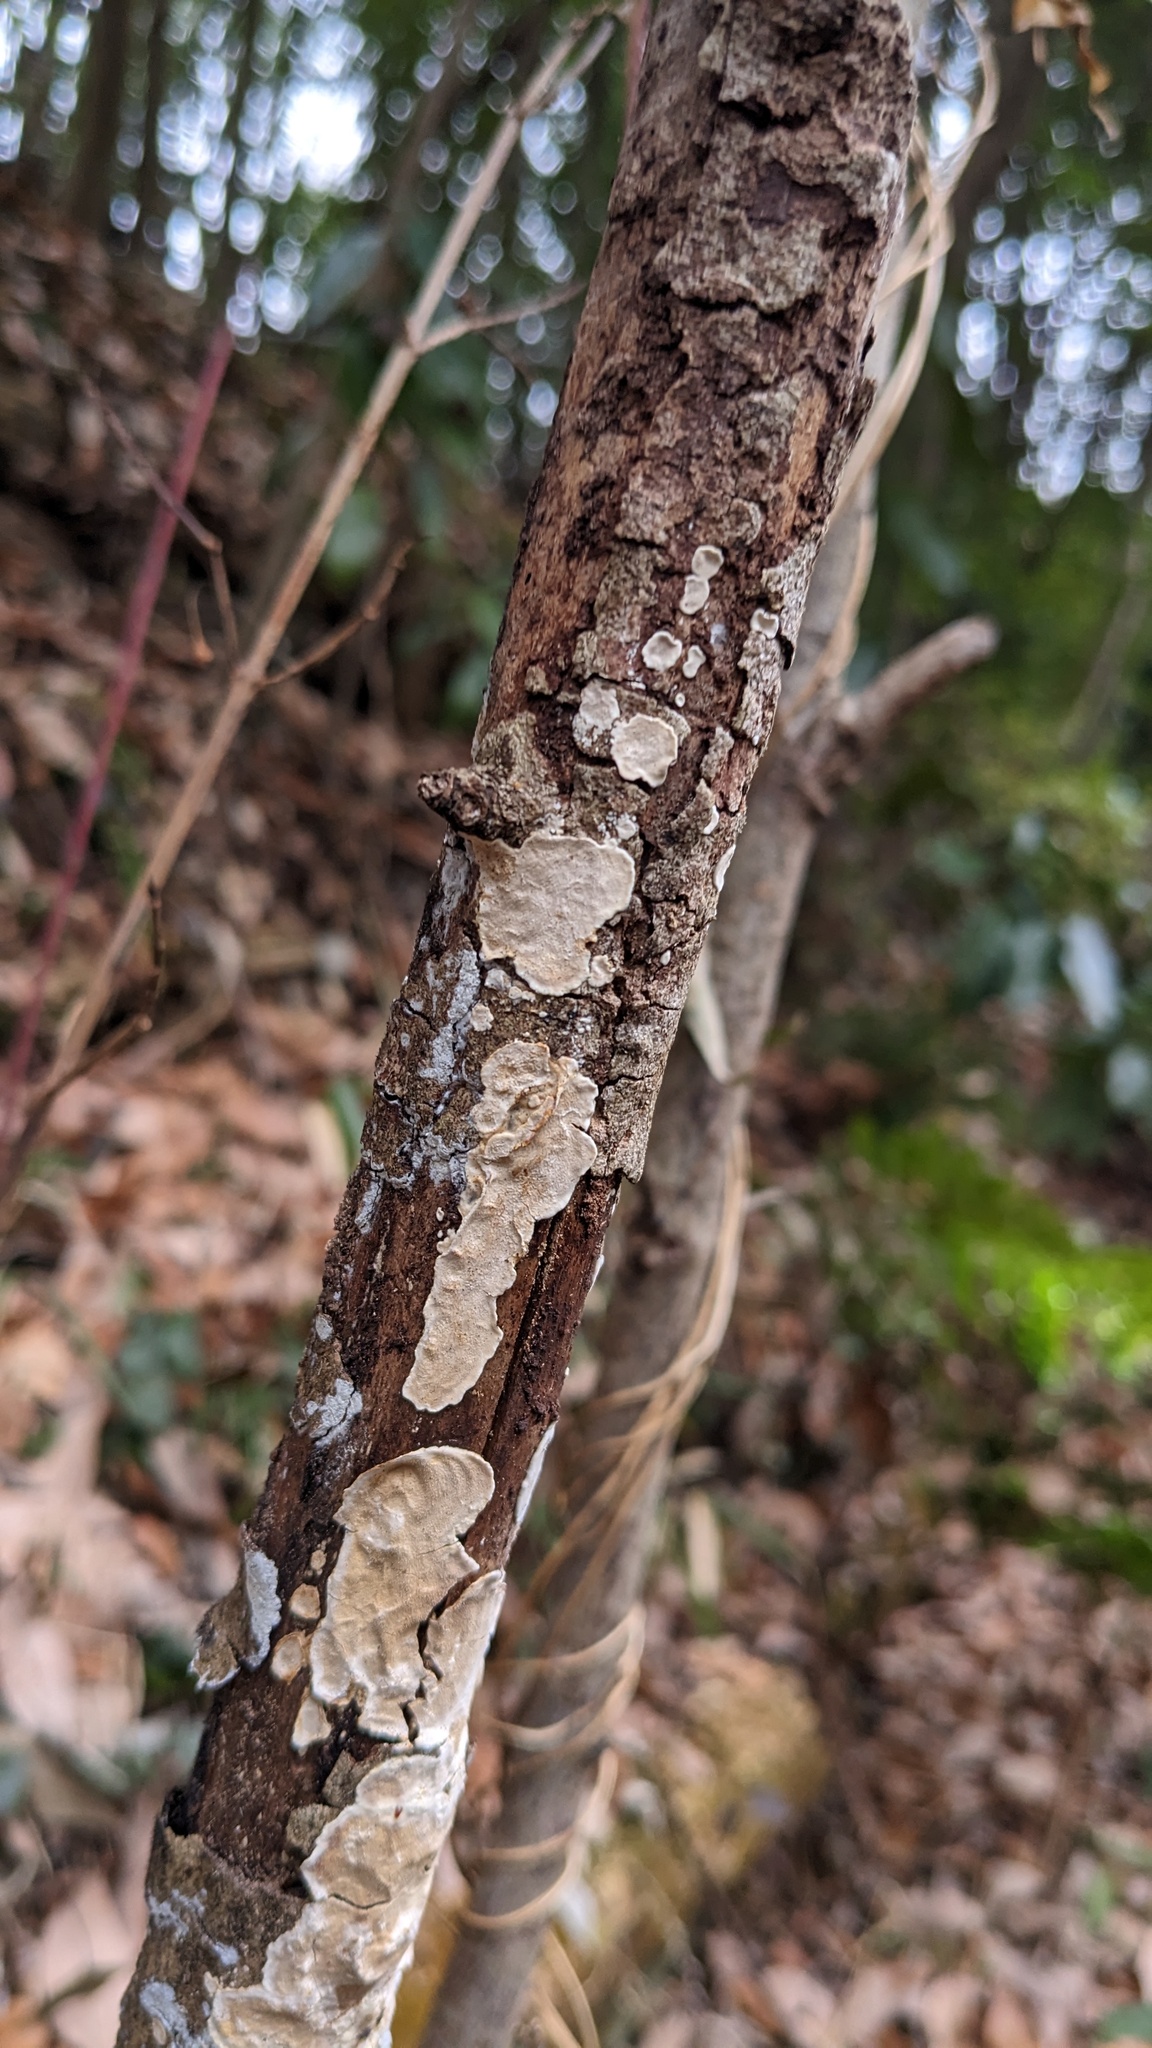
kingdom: Fungi
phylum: Basidiomycota
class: Agaricomycetes
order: Auriculariales
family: Auriculariaceae
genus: Heterochaete
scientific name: Heterochaete delicata
